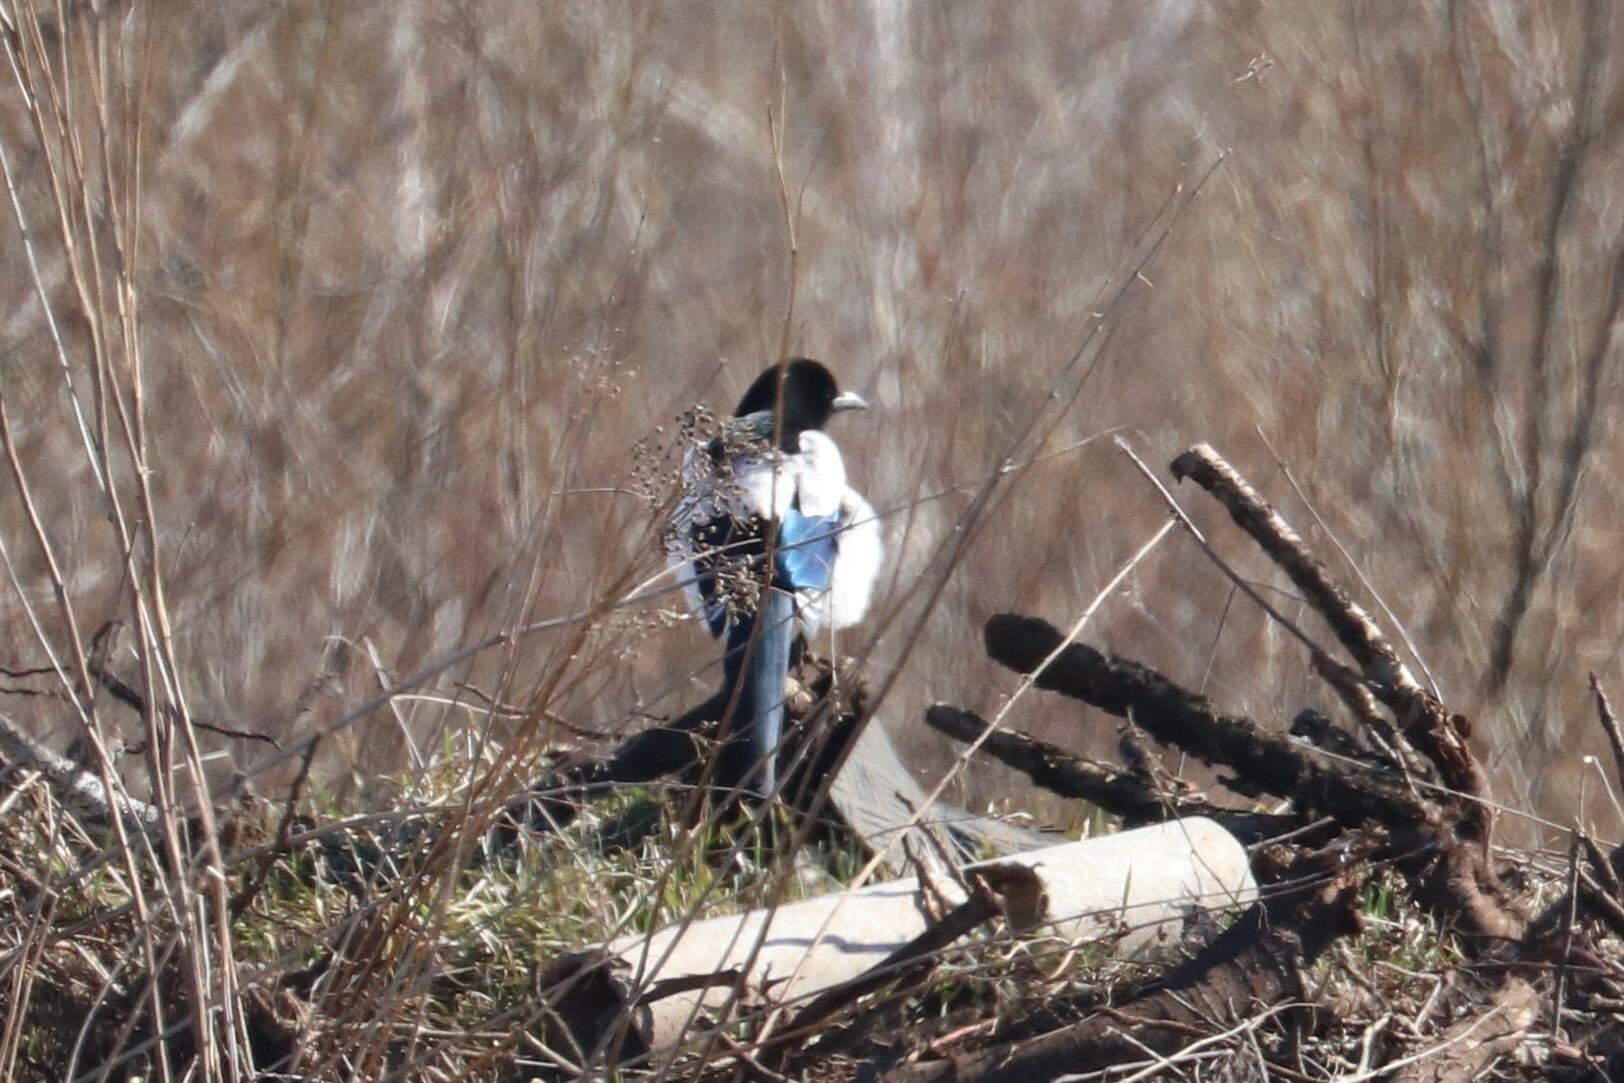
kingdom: Animalia
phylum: Chordata
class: Aves
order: Passeriformes
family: Corvidae
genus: Pica
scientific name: Pica pica
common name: Eurasian magpie
